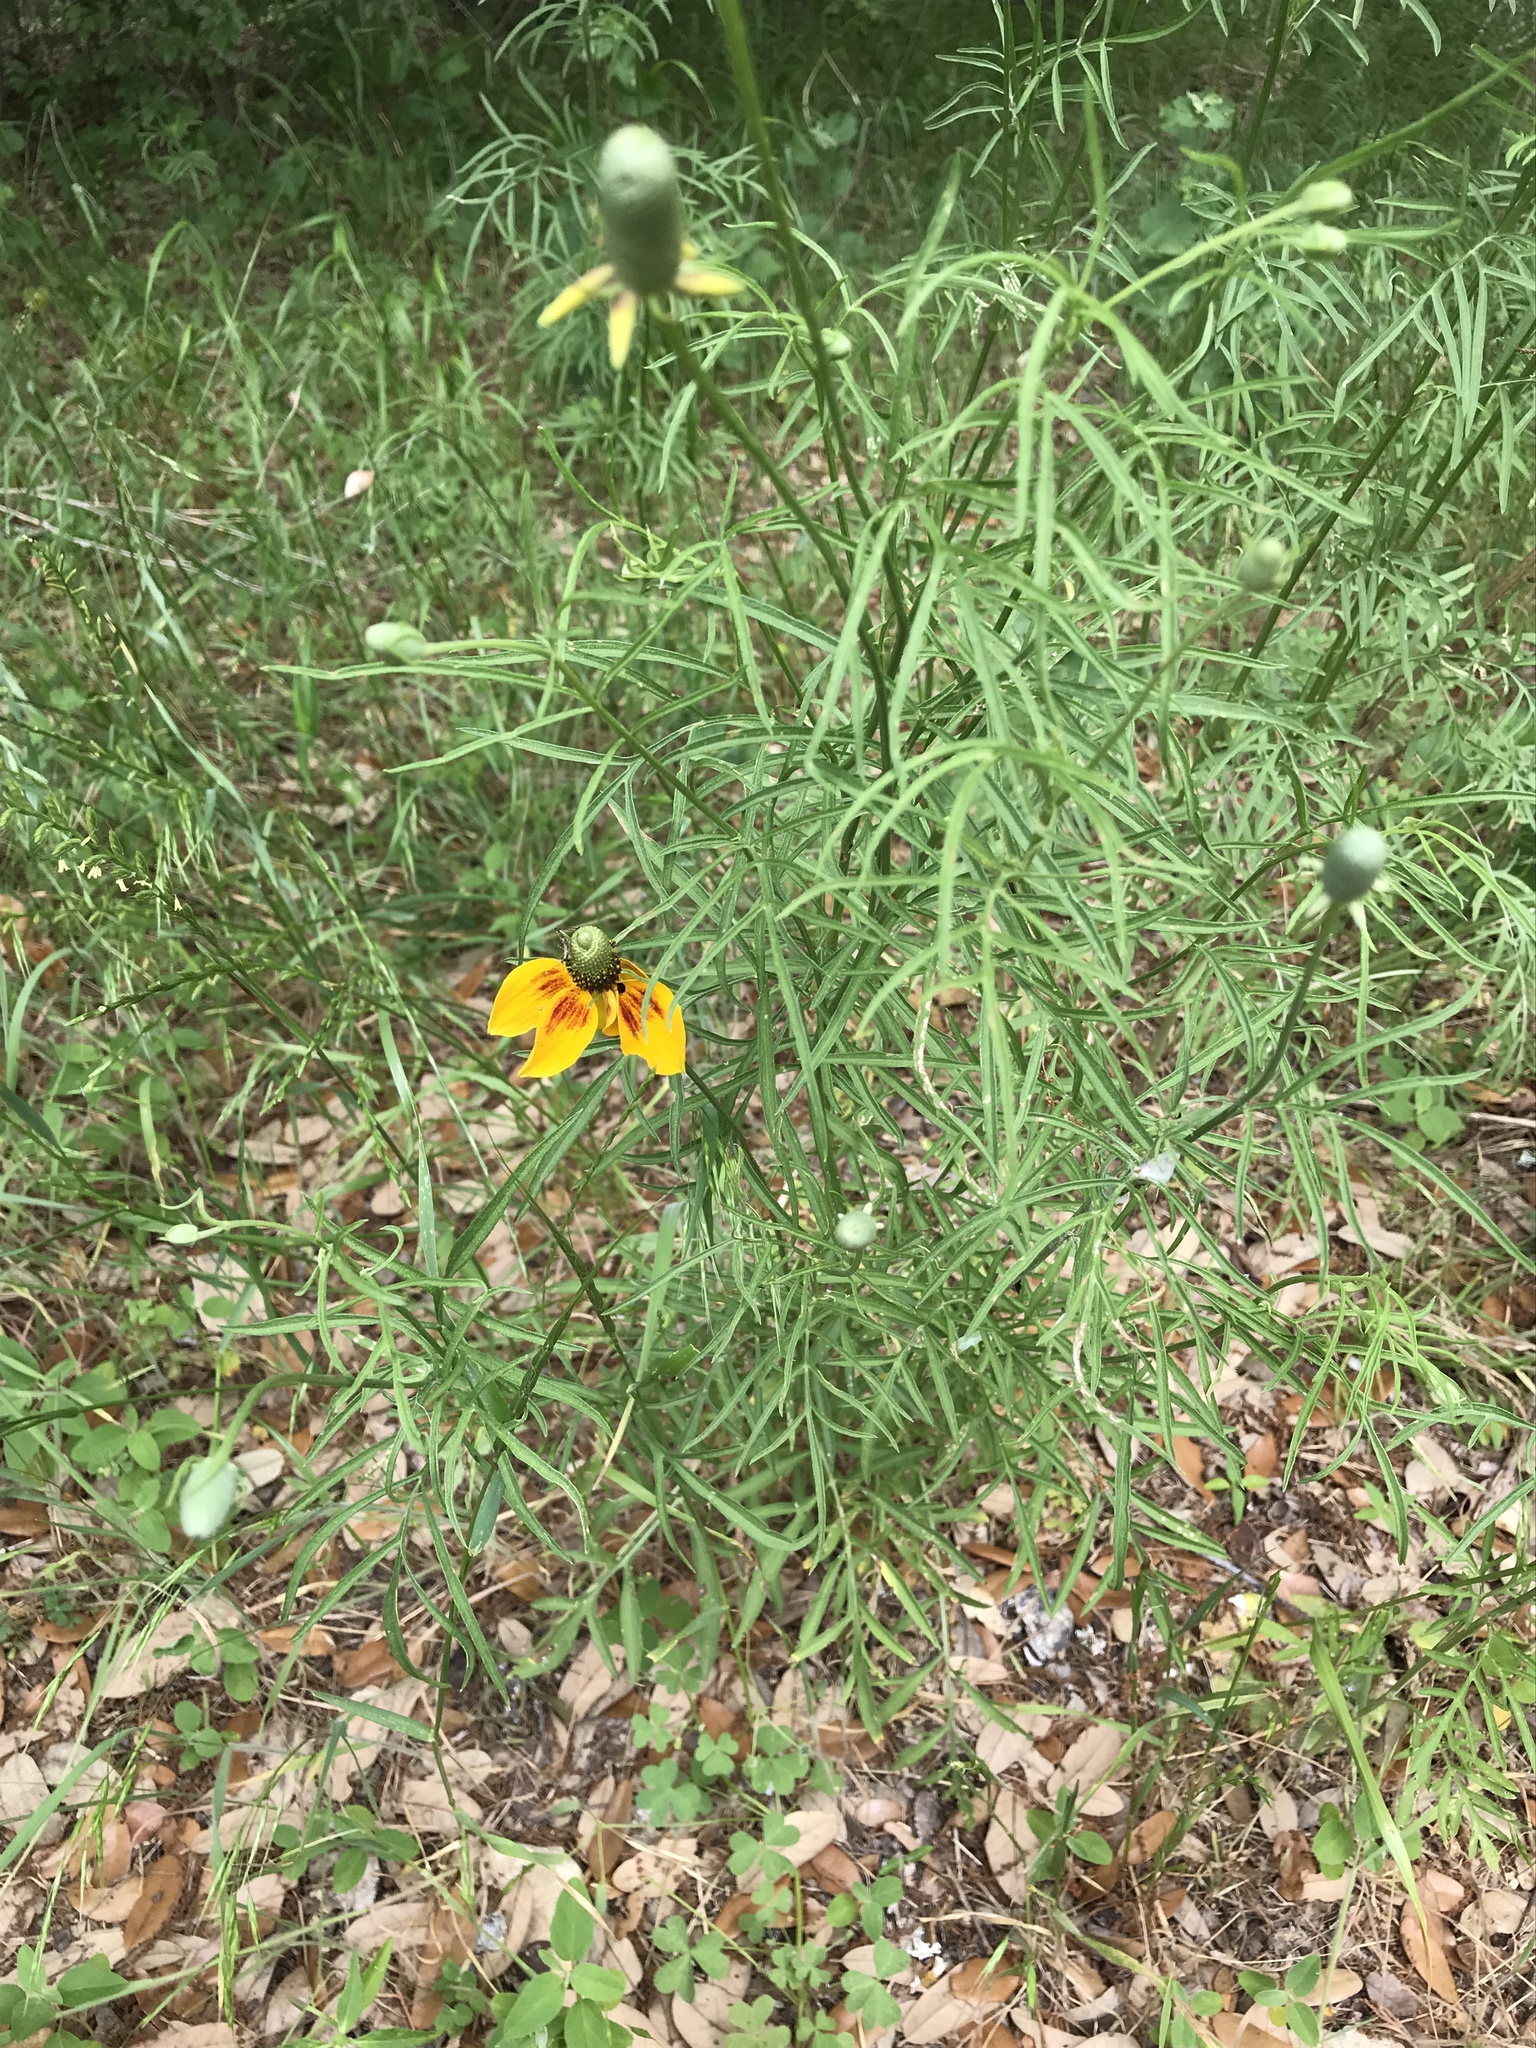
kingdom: Plantae
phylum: Tracheophyta
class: Magnoliopsida
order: Asterales
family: Asteraceae
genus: Ratibida
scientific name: Ratibida columnifera
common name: Prairie coneflower
